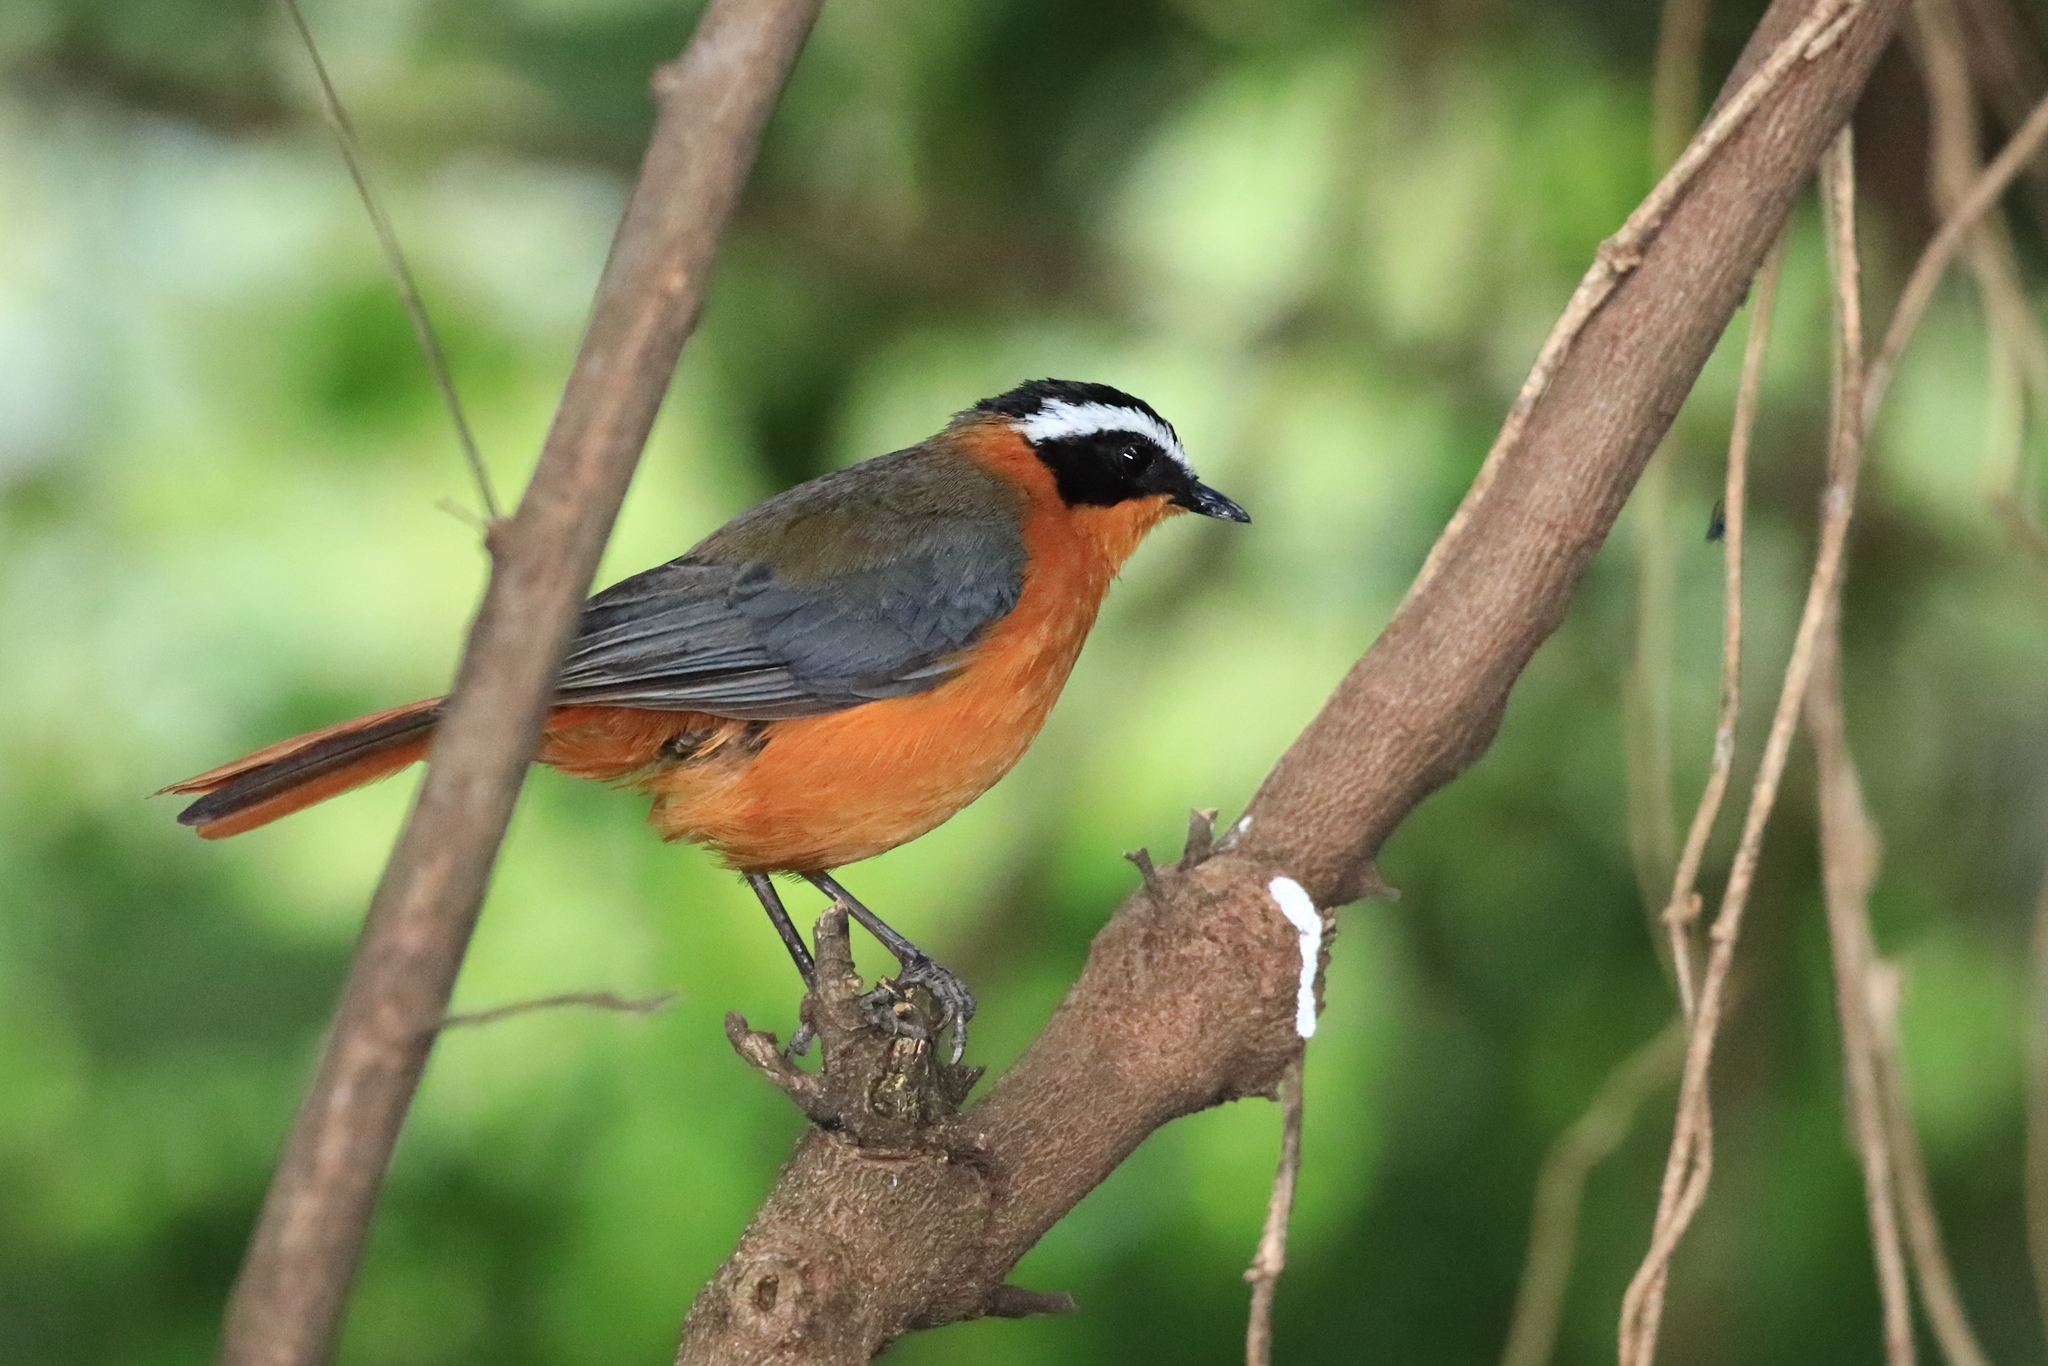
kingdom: Animalia
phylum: Chordata
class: Aves
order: Passeriformes
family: Muscicapidae
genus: Cossypha
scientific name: Cossypha heuglini
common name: White-browed robin-chat
